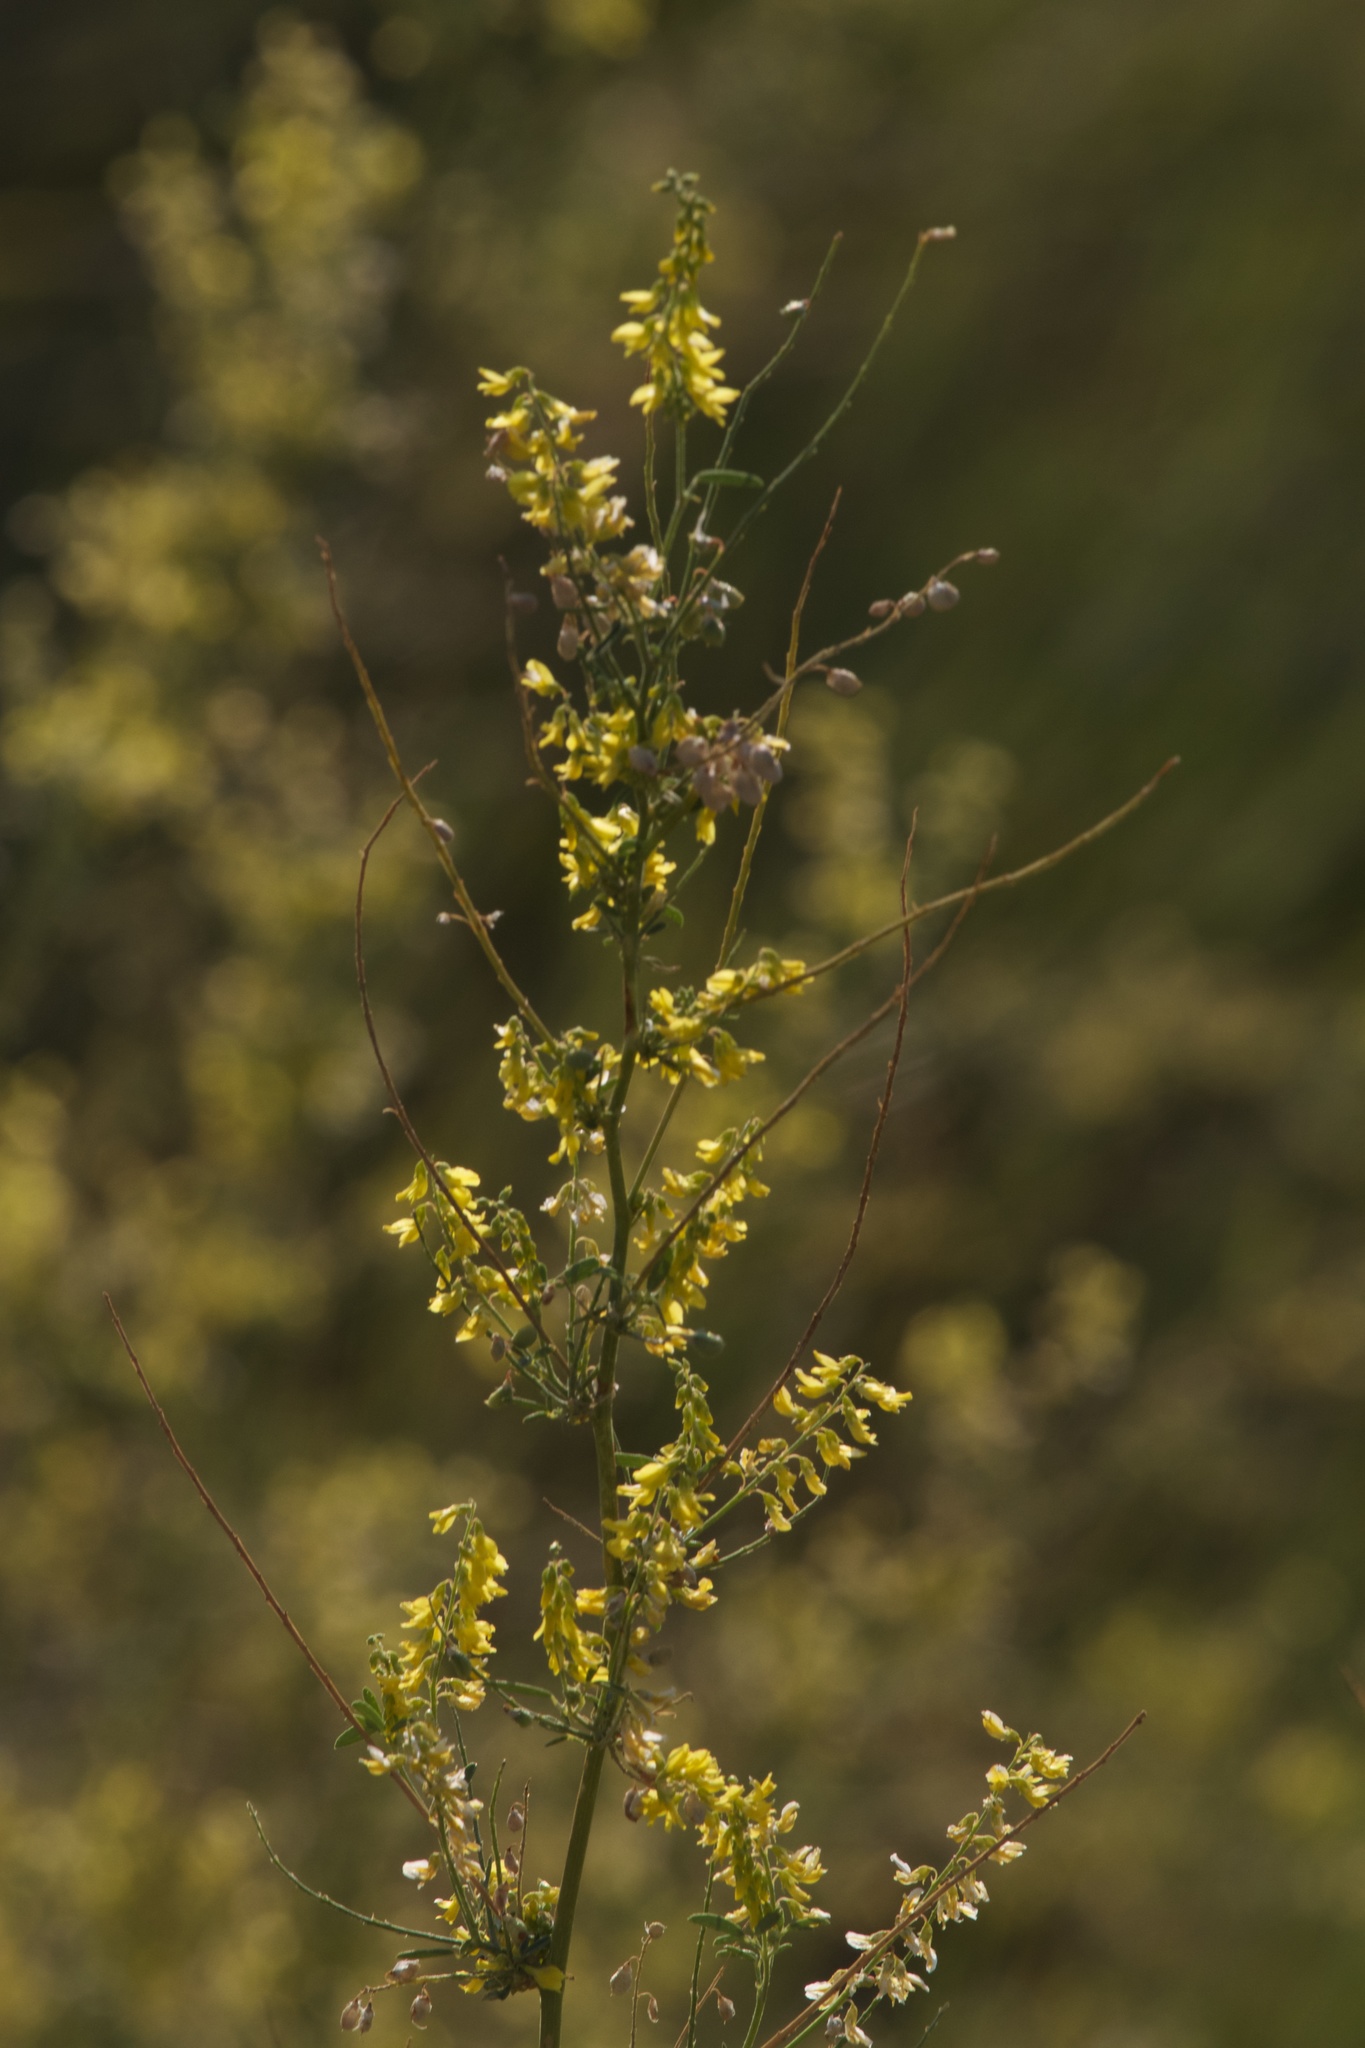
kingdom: Plantae
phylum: Tracheophyta
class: Magnoliopsida
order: Fabales
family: Fabaceae
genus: Melilotus
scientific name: Melilotus officinalis
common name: Sweetclover
